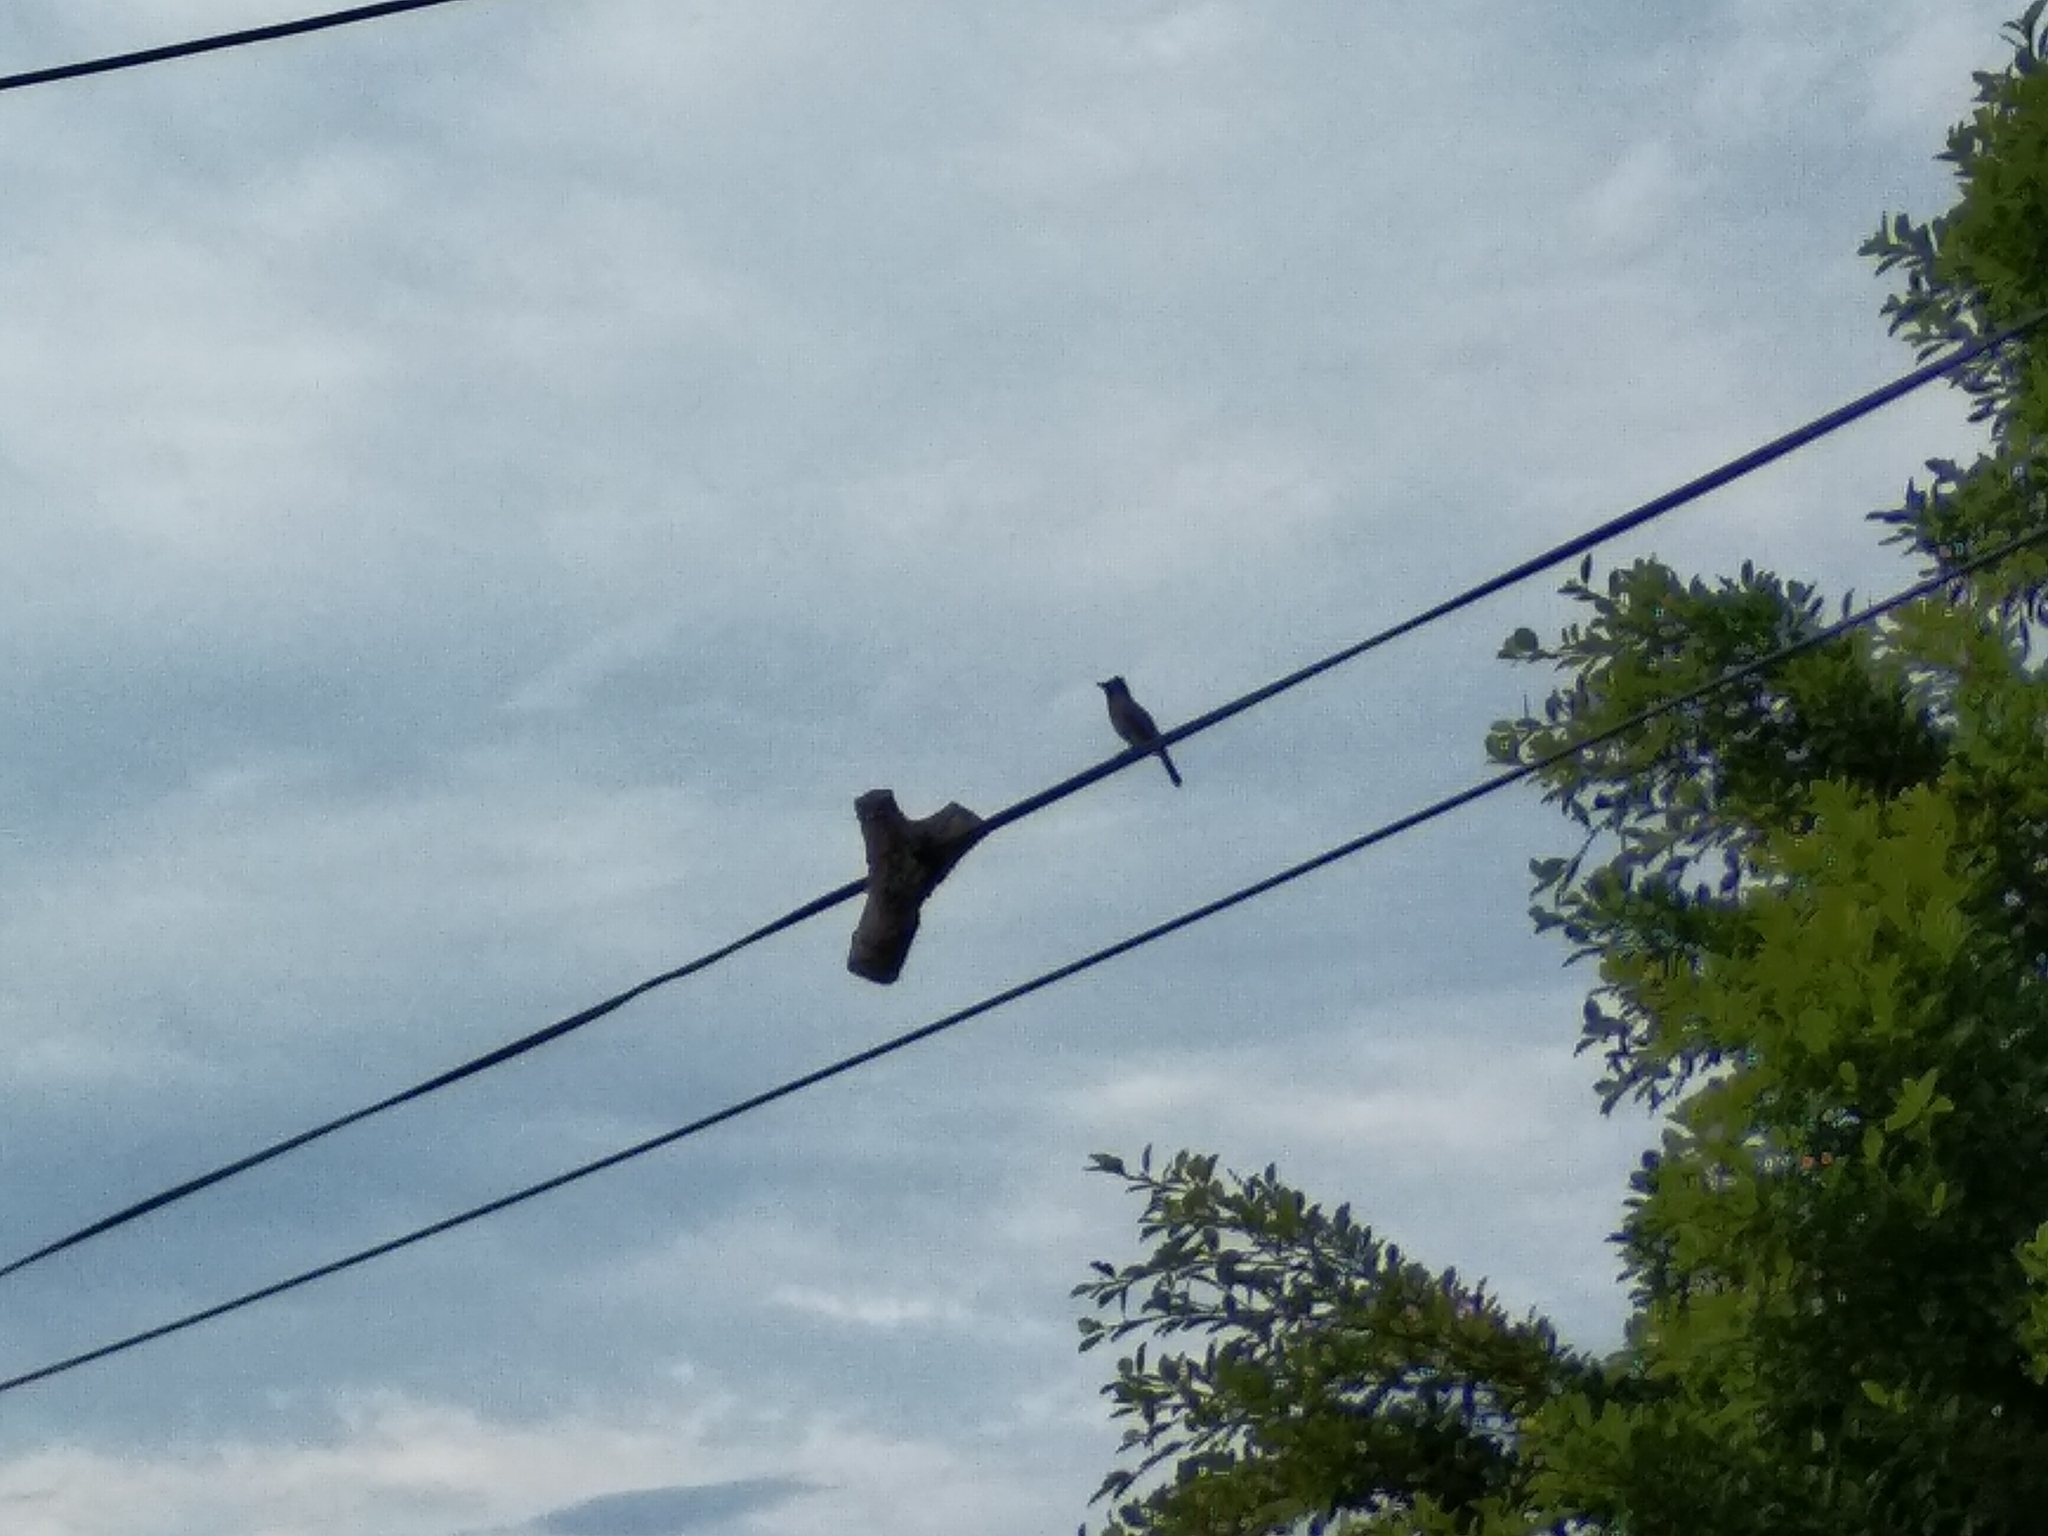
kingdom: Animalia
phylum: Chordata
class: Aves
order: Passeriformes
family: Pycnonotidae
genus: Pycnonotus
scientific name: Pycnonotus capensis
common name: Cape bulbul
